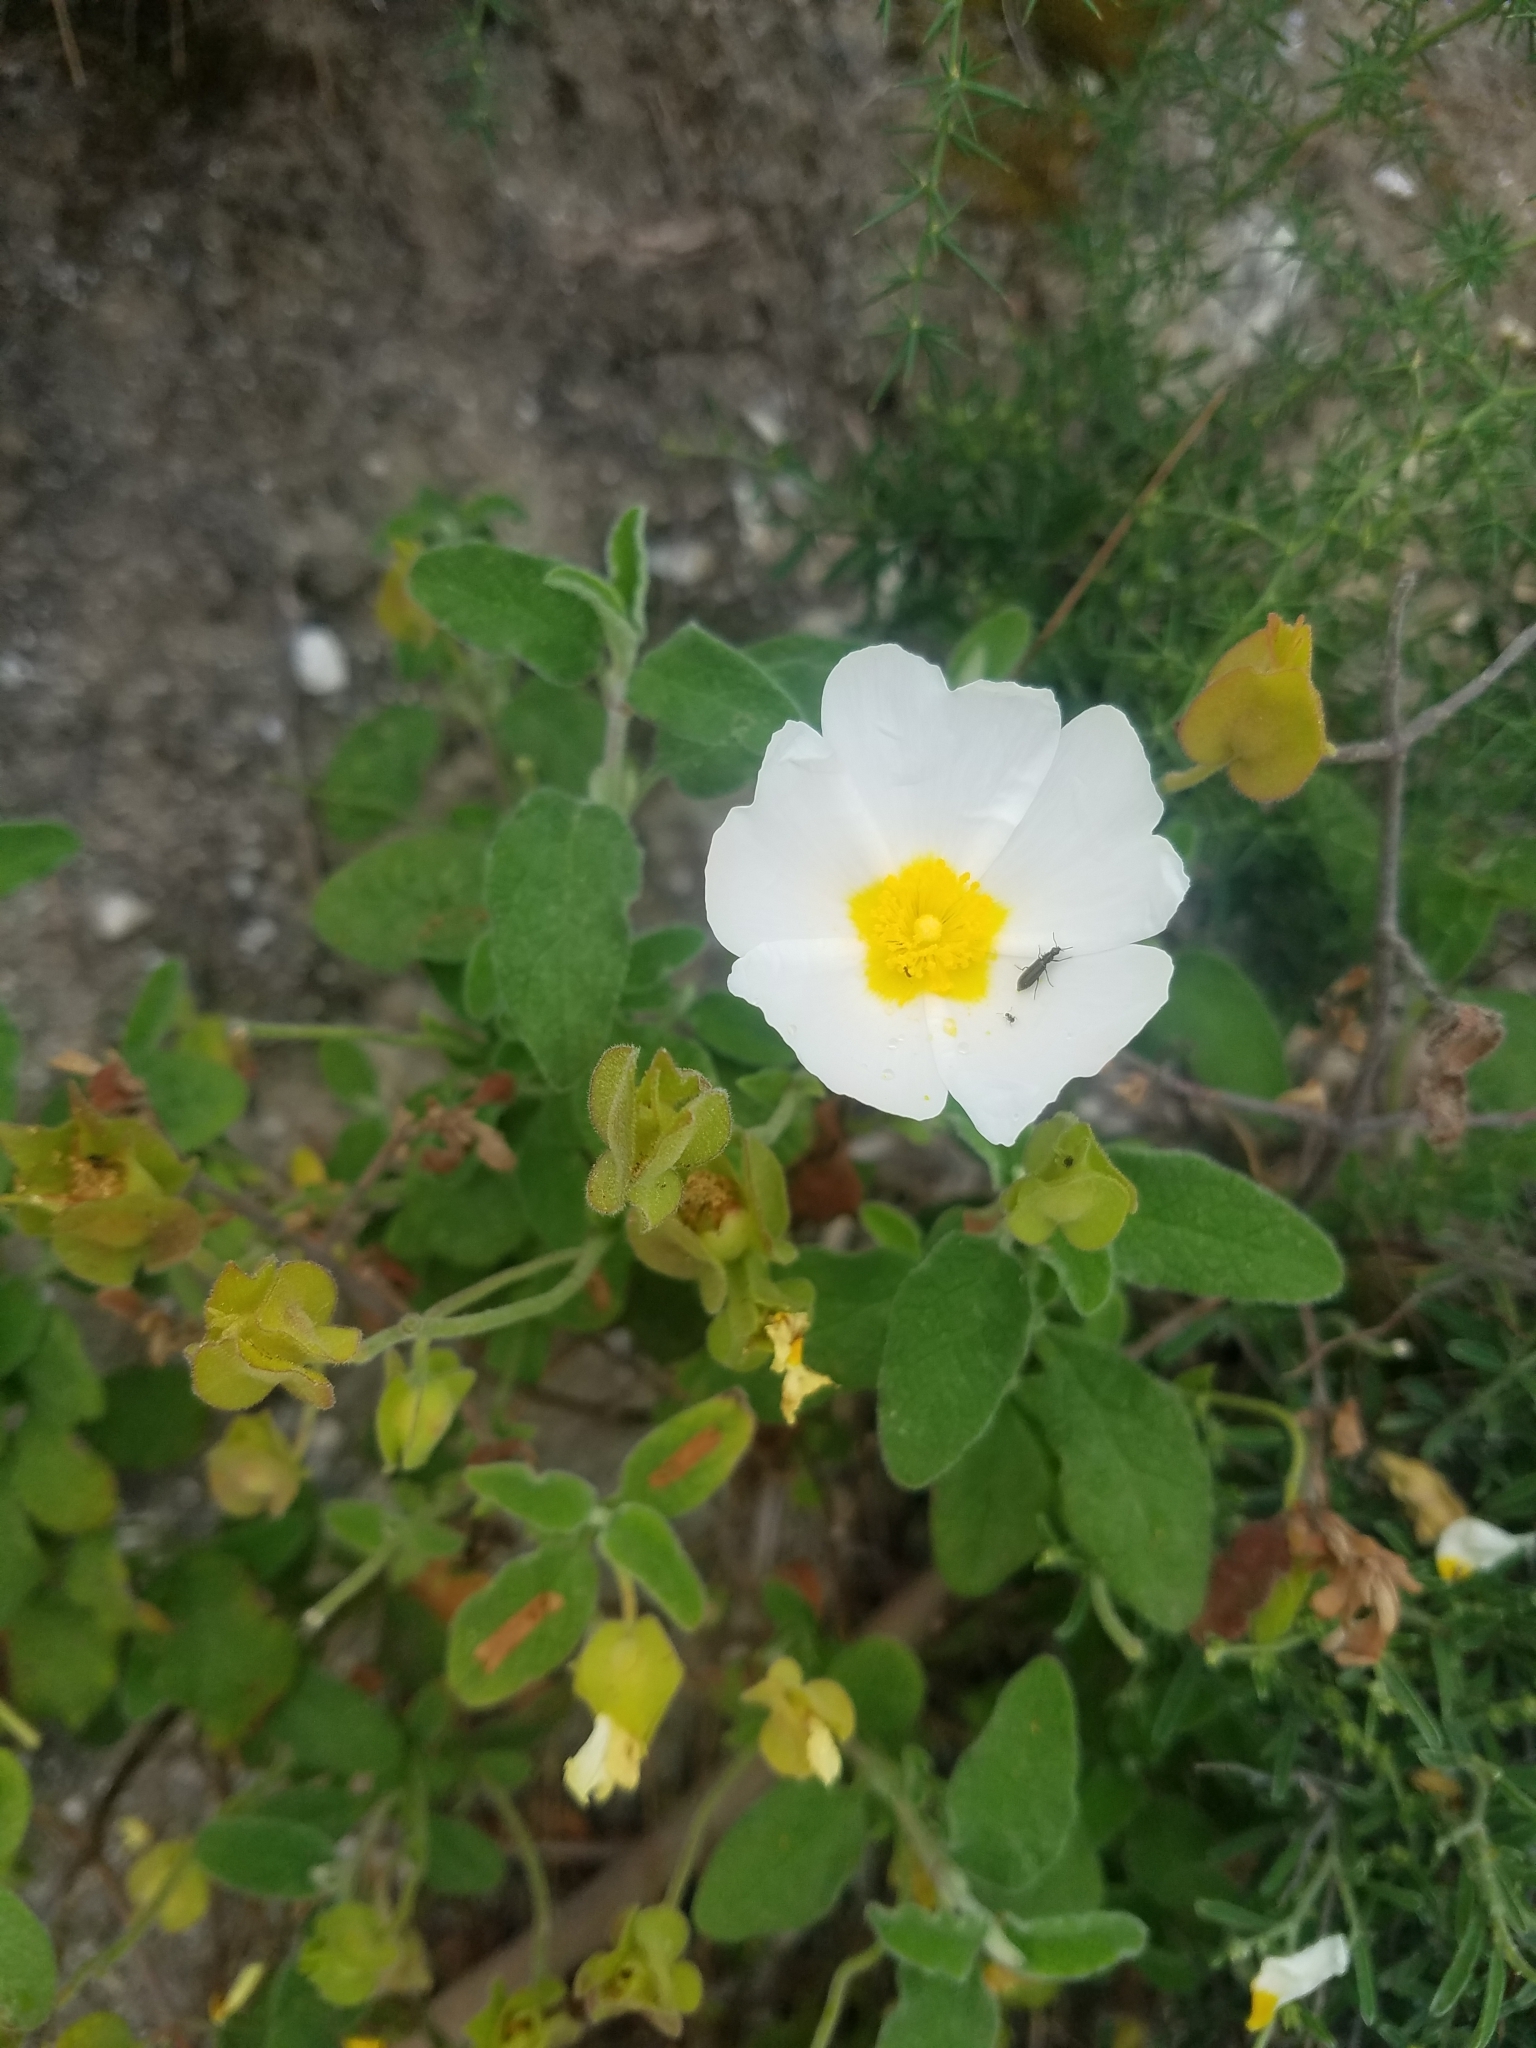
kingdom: Plantae
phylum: Tracheophyta
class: Magnoliopsida
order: Malvales
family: Cistaceae
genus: Cistus
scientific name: Cistus salviifolius
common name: Salvia cistus
